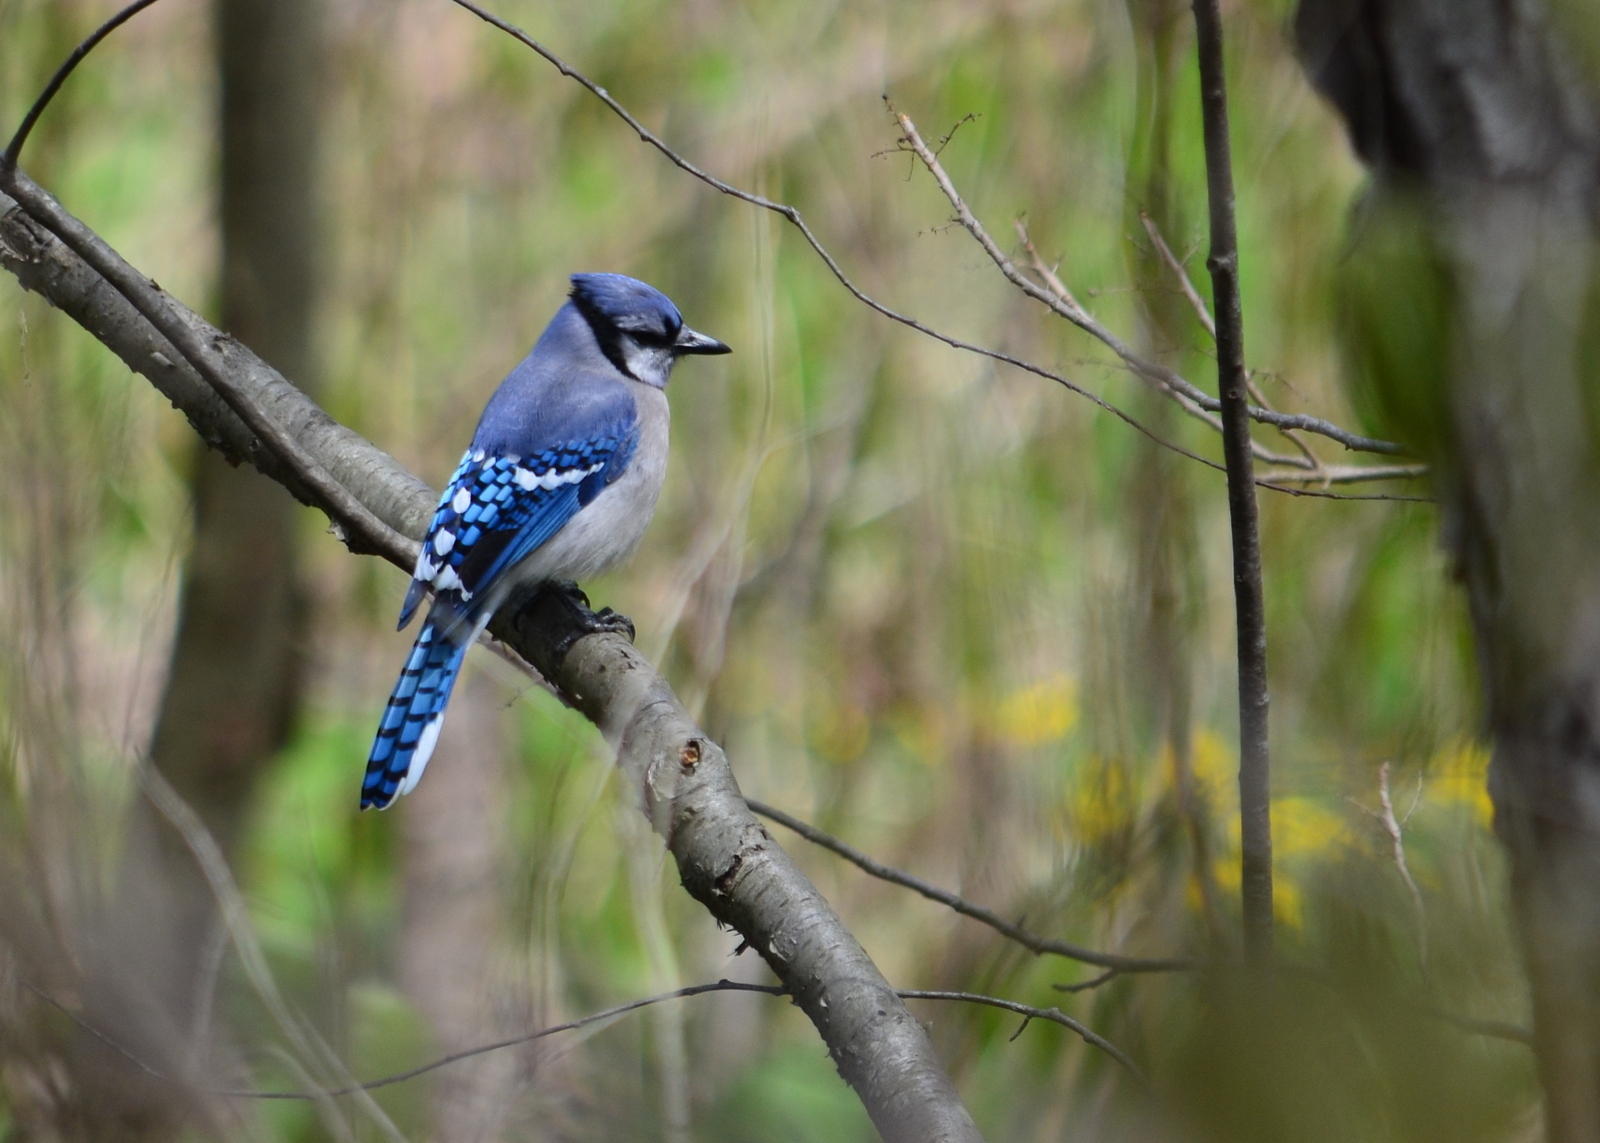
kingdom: Animalia
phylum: Chordata
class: Aves
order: Passeriformes
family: Corvidae
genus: Cyanocitta
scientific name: Cyanocitta cristata
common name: Blue jay
